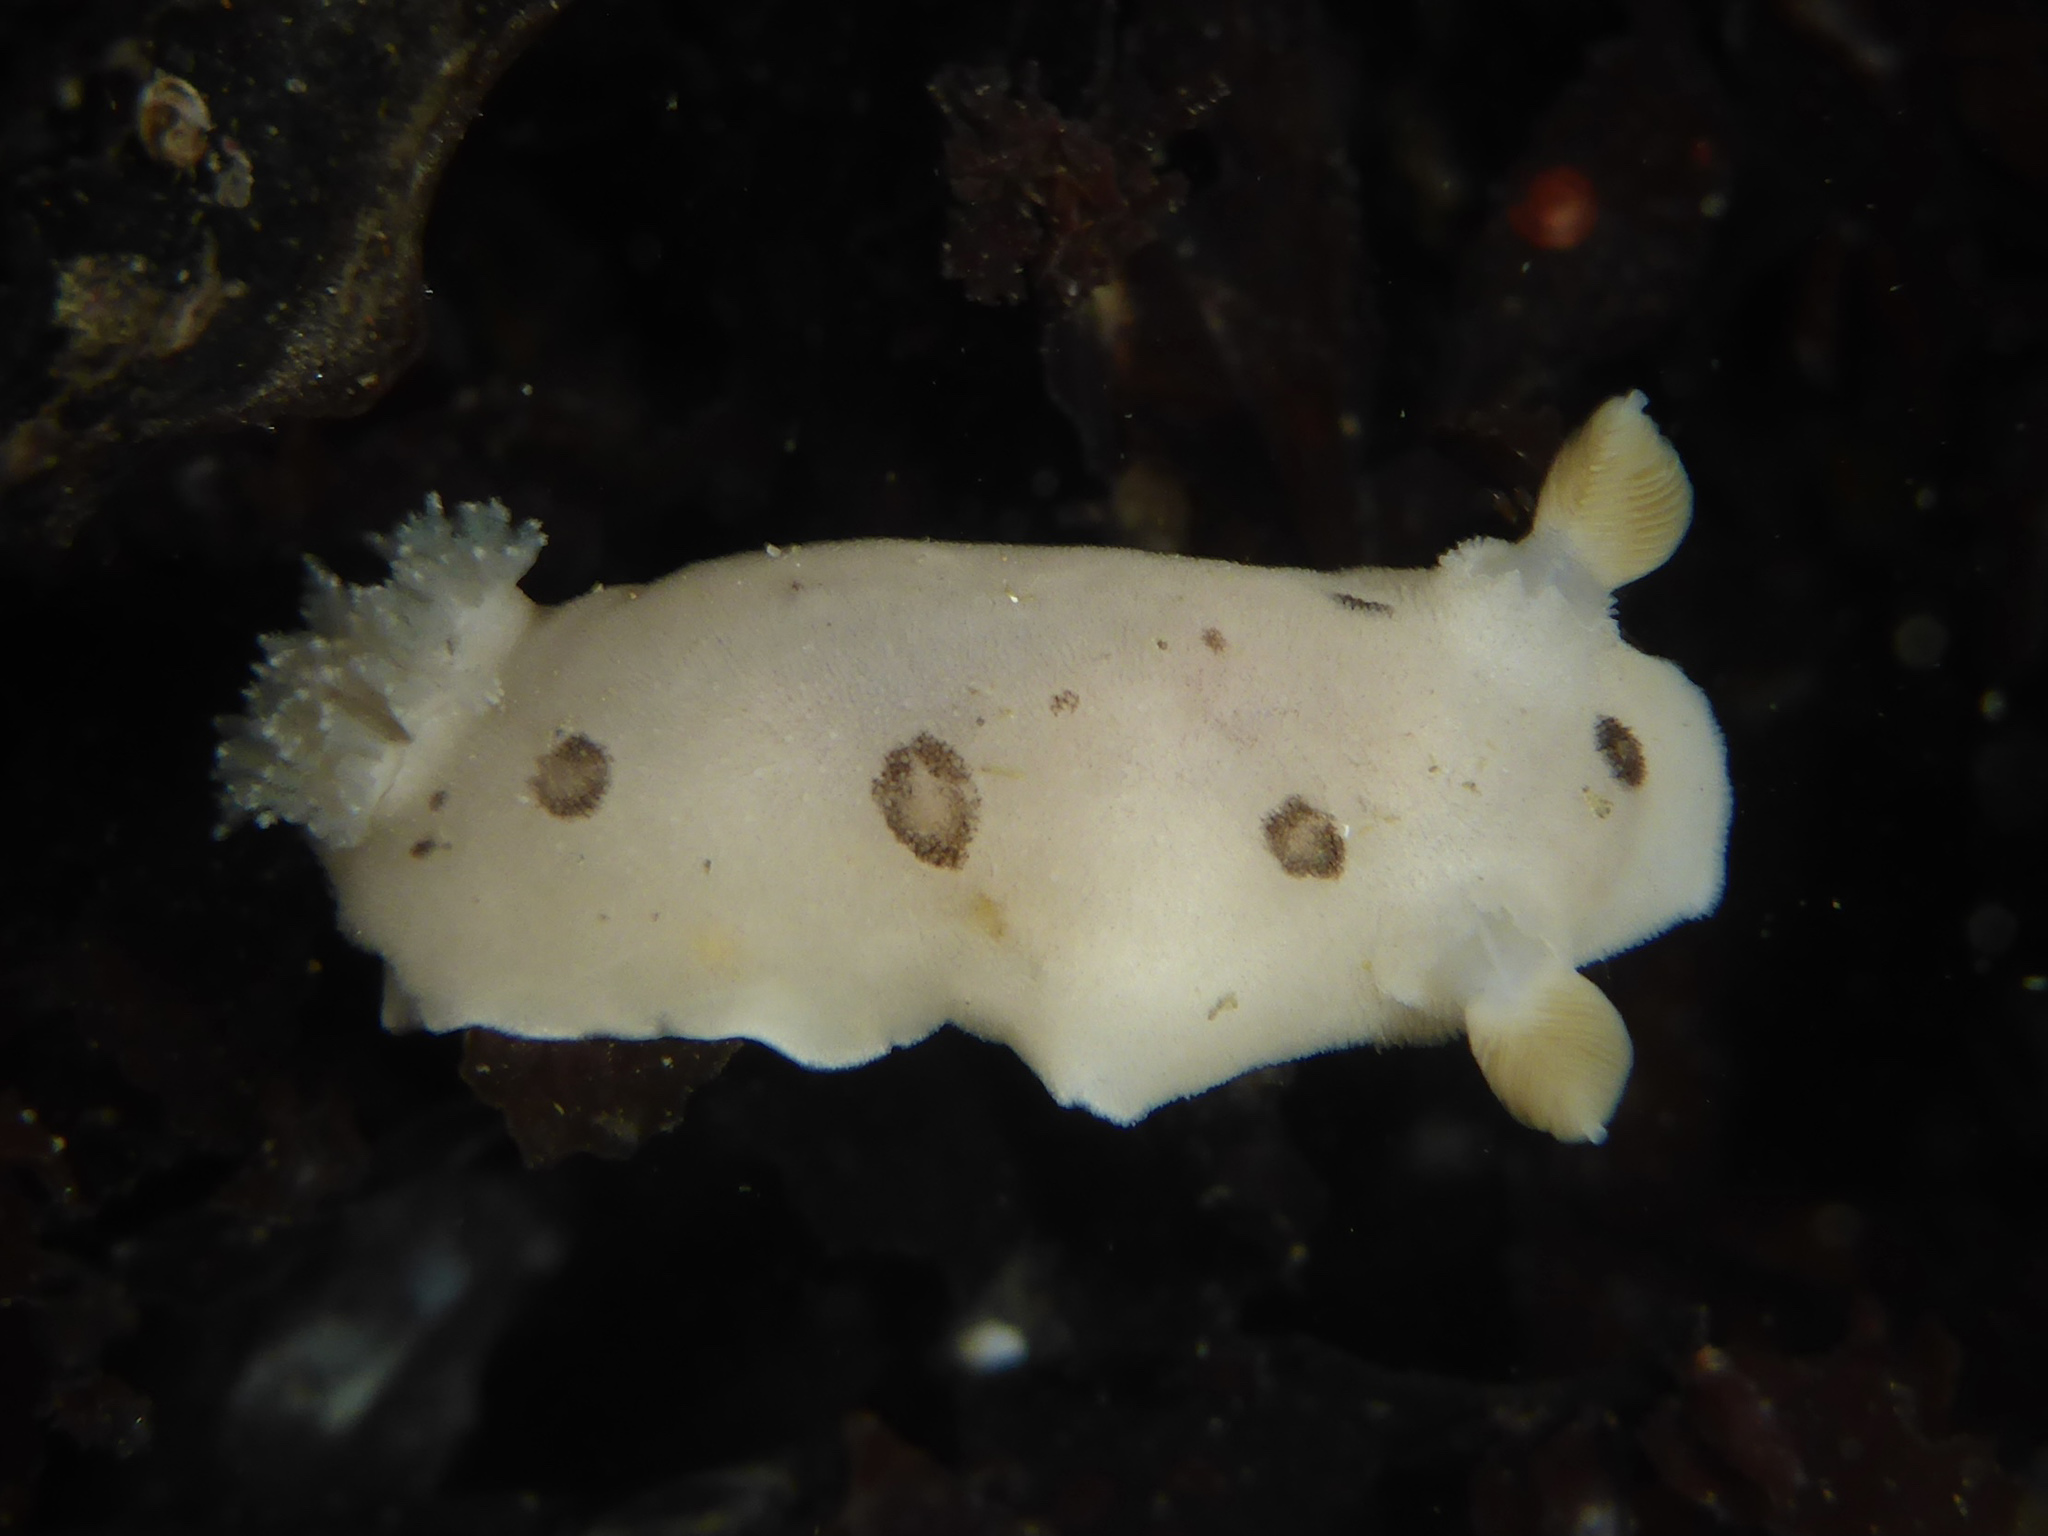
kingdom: Animalia
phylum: Mollusca
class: Gastropoda
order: Nudibranchia
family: Discodorididae
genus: Diaulula
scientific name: Diaulula sandiegensis
